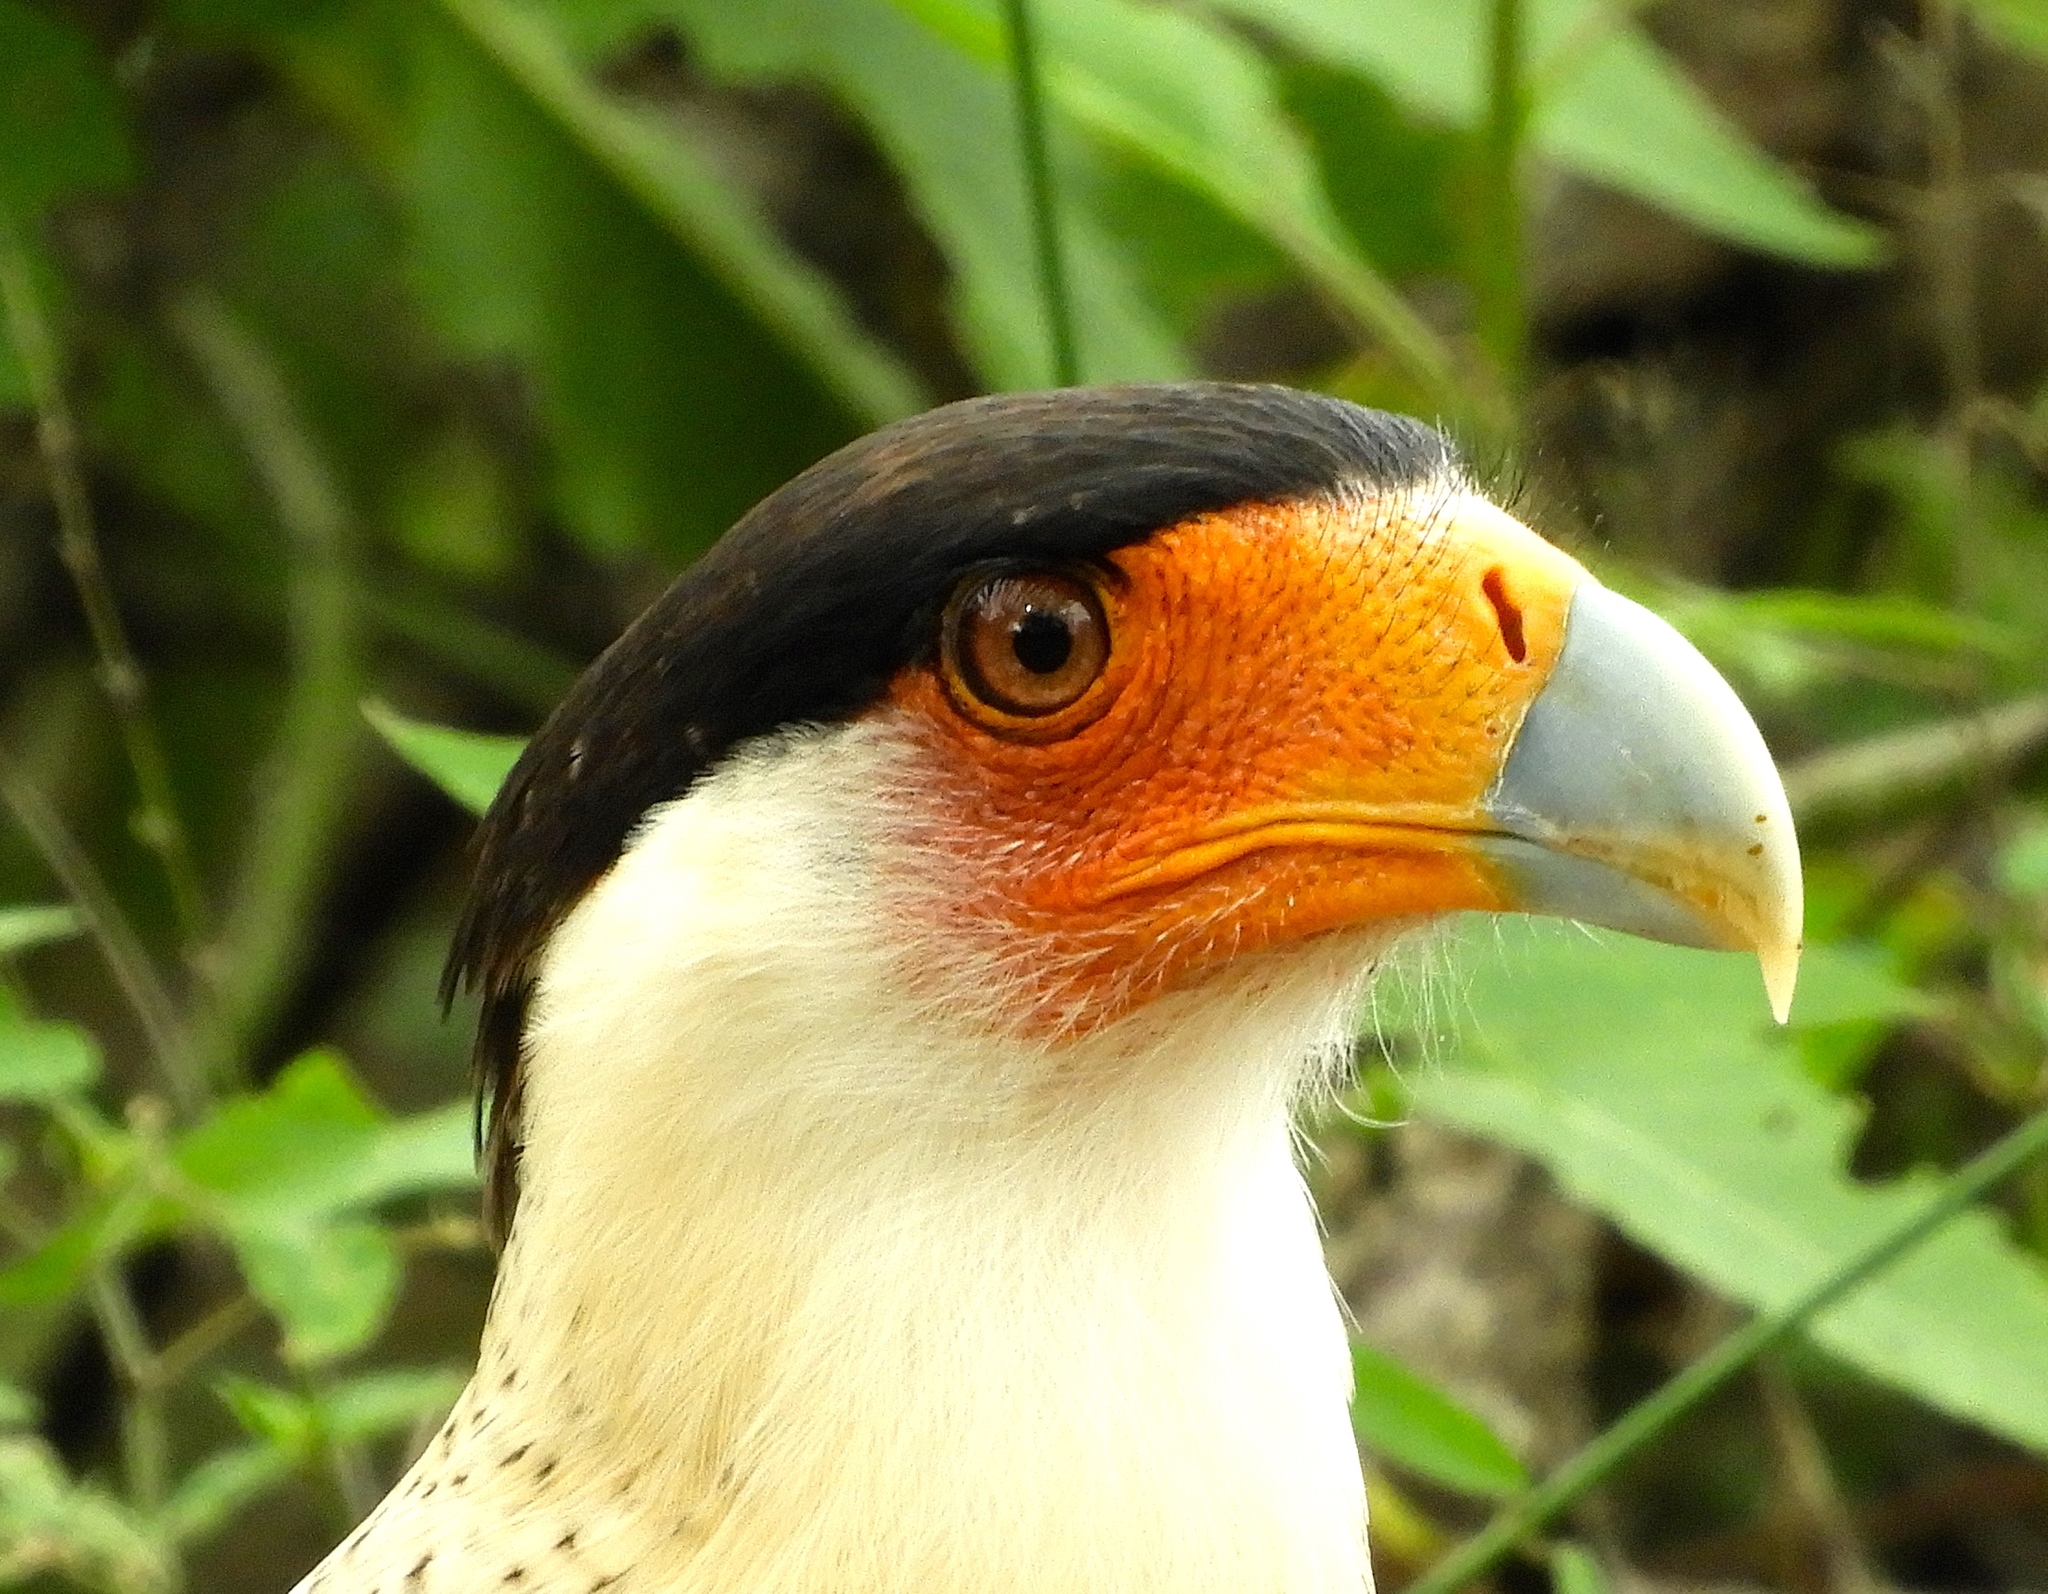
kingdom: Animalia
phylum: Chordata
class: Aves
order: Falconiformes
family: Falconidae
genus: Caracara
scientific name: Caracara plancus
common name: Southern caracara
